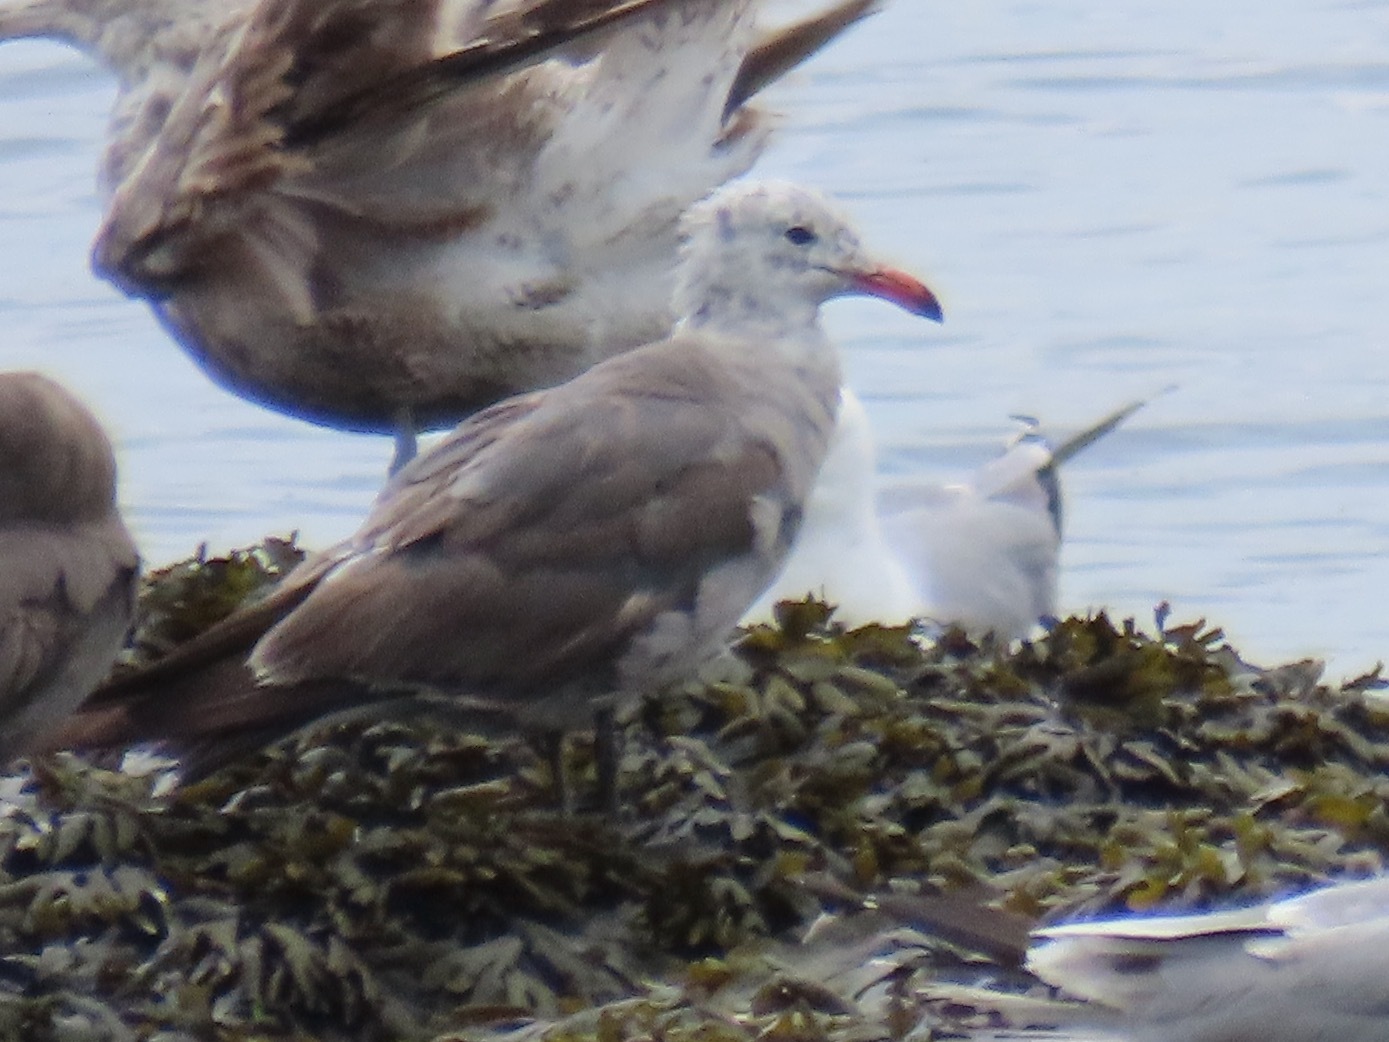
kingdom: Animalia
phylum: Chordata
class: Aves
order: Charadriiformes
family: Laridae
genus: Larus
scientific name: Larus heermanni
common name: Heermann's gull
